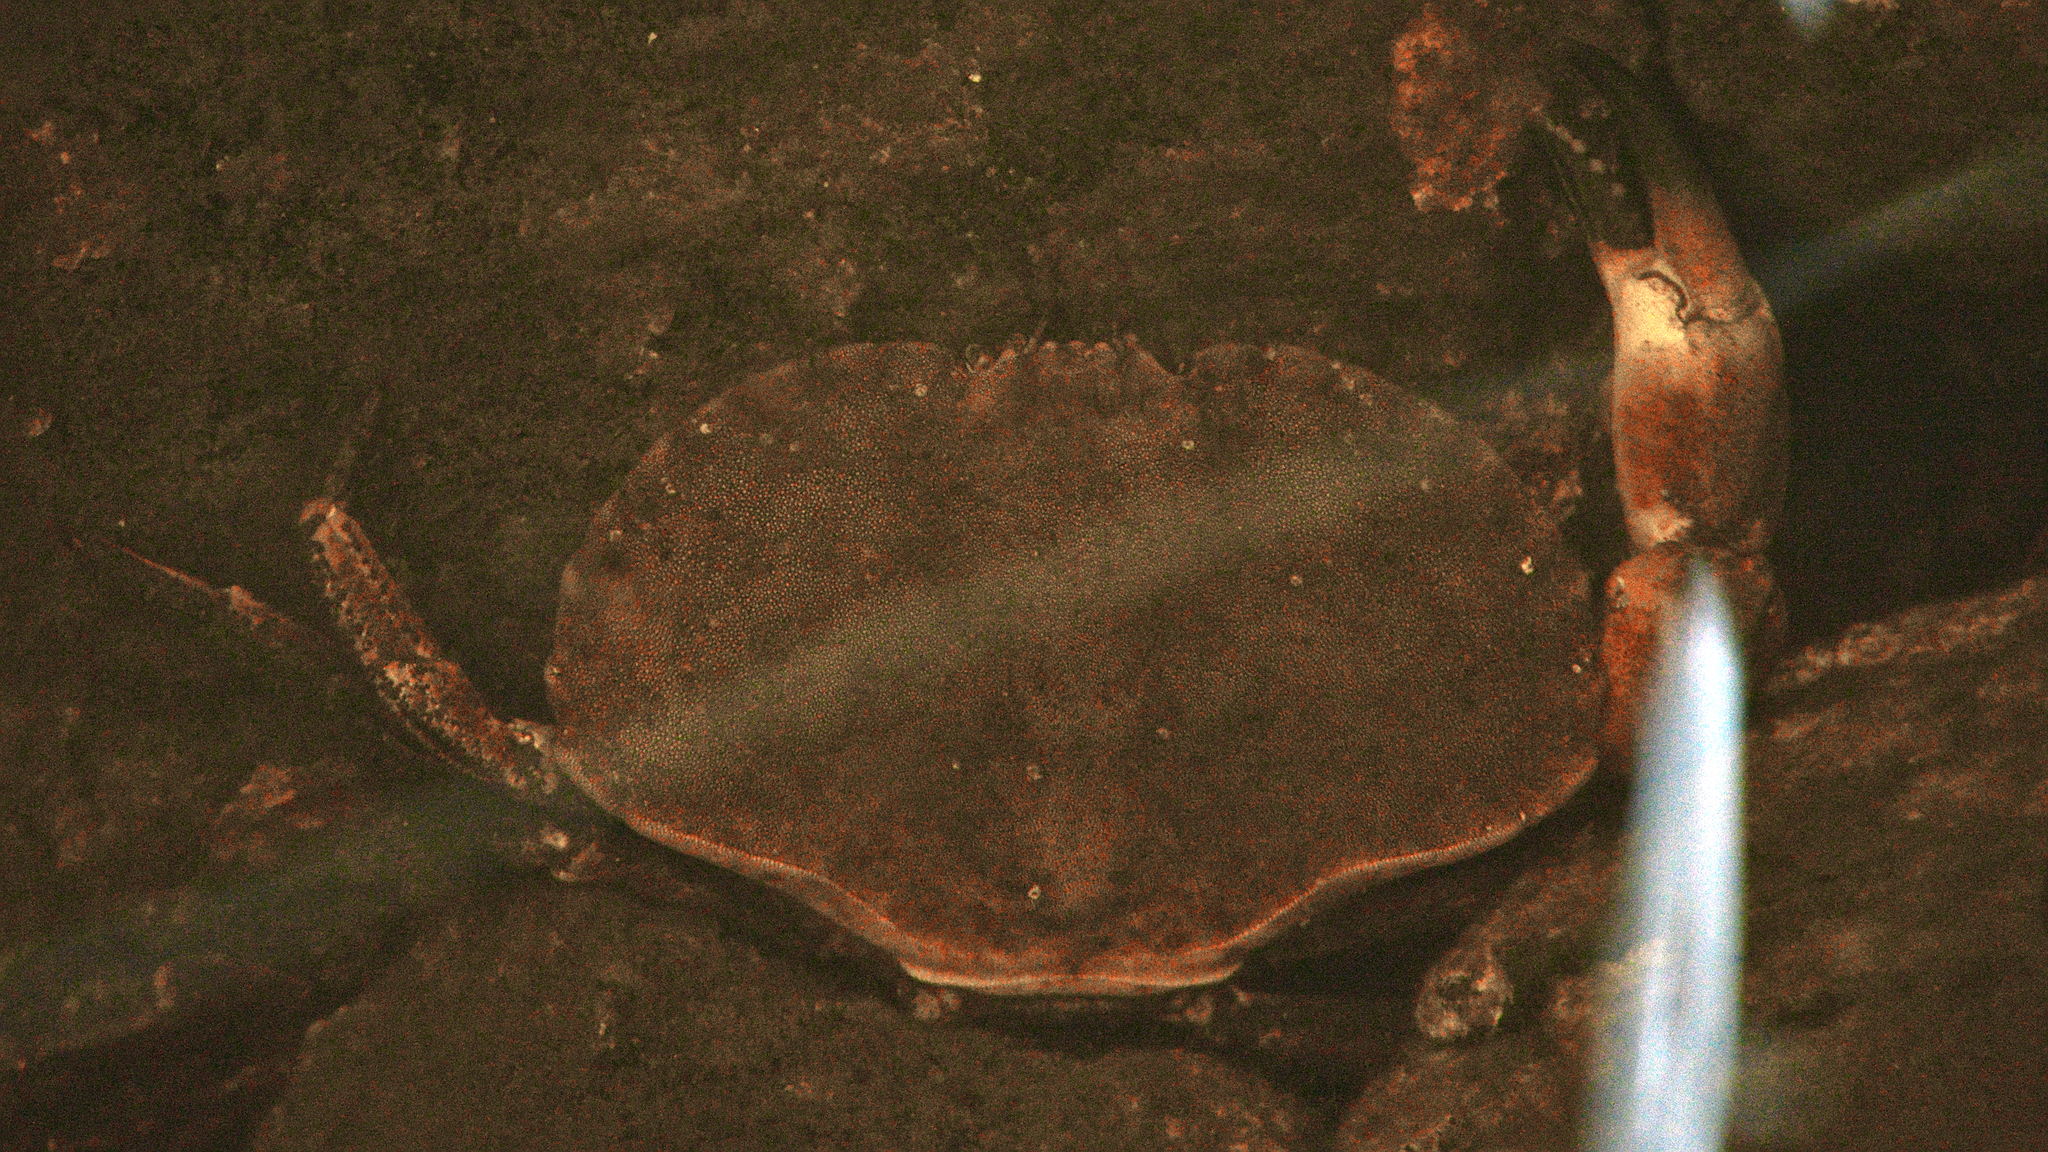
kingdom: Animalia
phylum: Arthropoda
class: Malacostraca
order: Decapoda
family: Cancridae
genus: Cancer
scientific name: Cancer pagurus
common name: Edible crab
